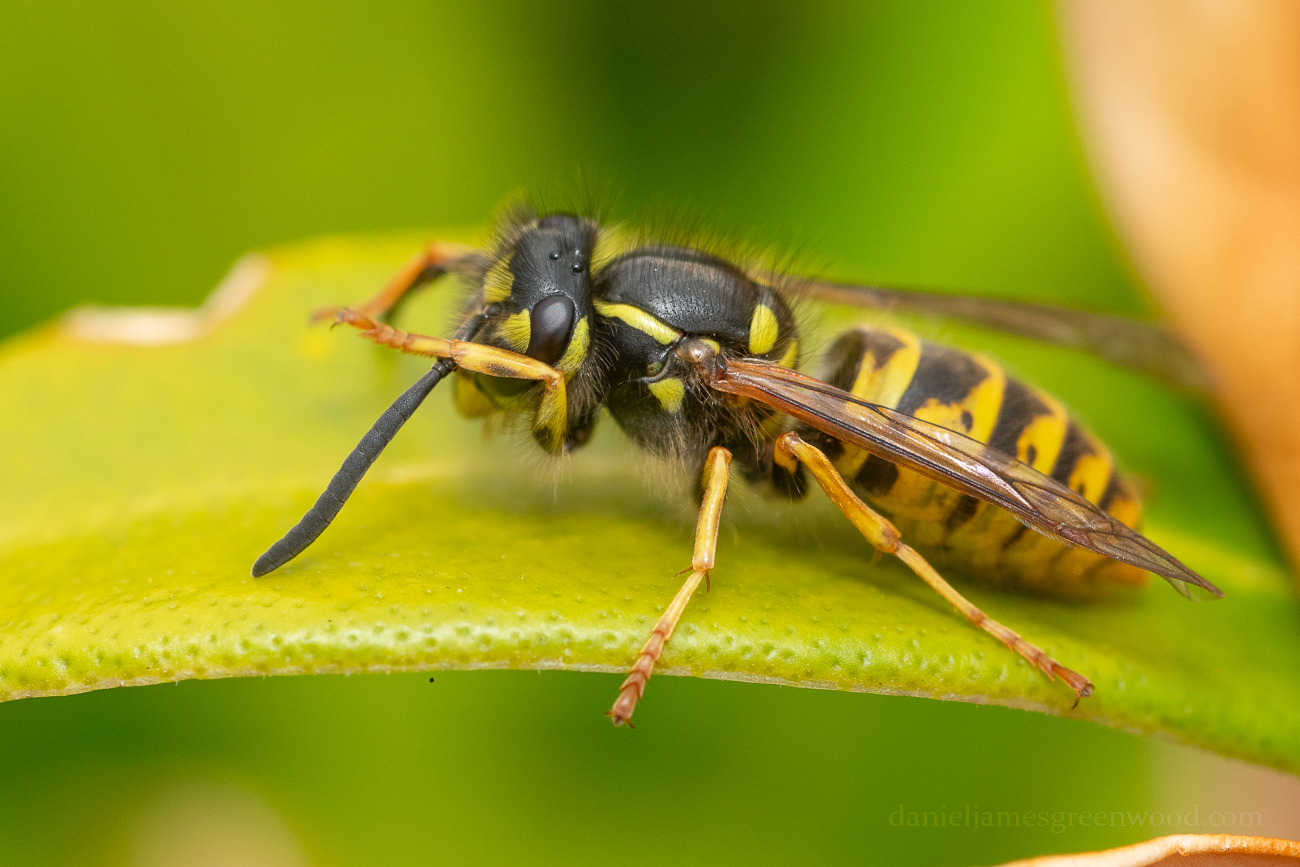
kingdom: Animalia
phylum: Arthropoda
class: Insecta
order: Hymenoptera
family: Vespidae
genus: Vespula
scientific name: Vespula vulgaris
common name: Common wasp
